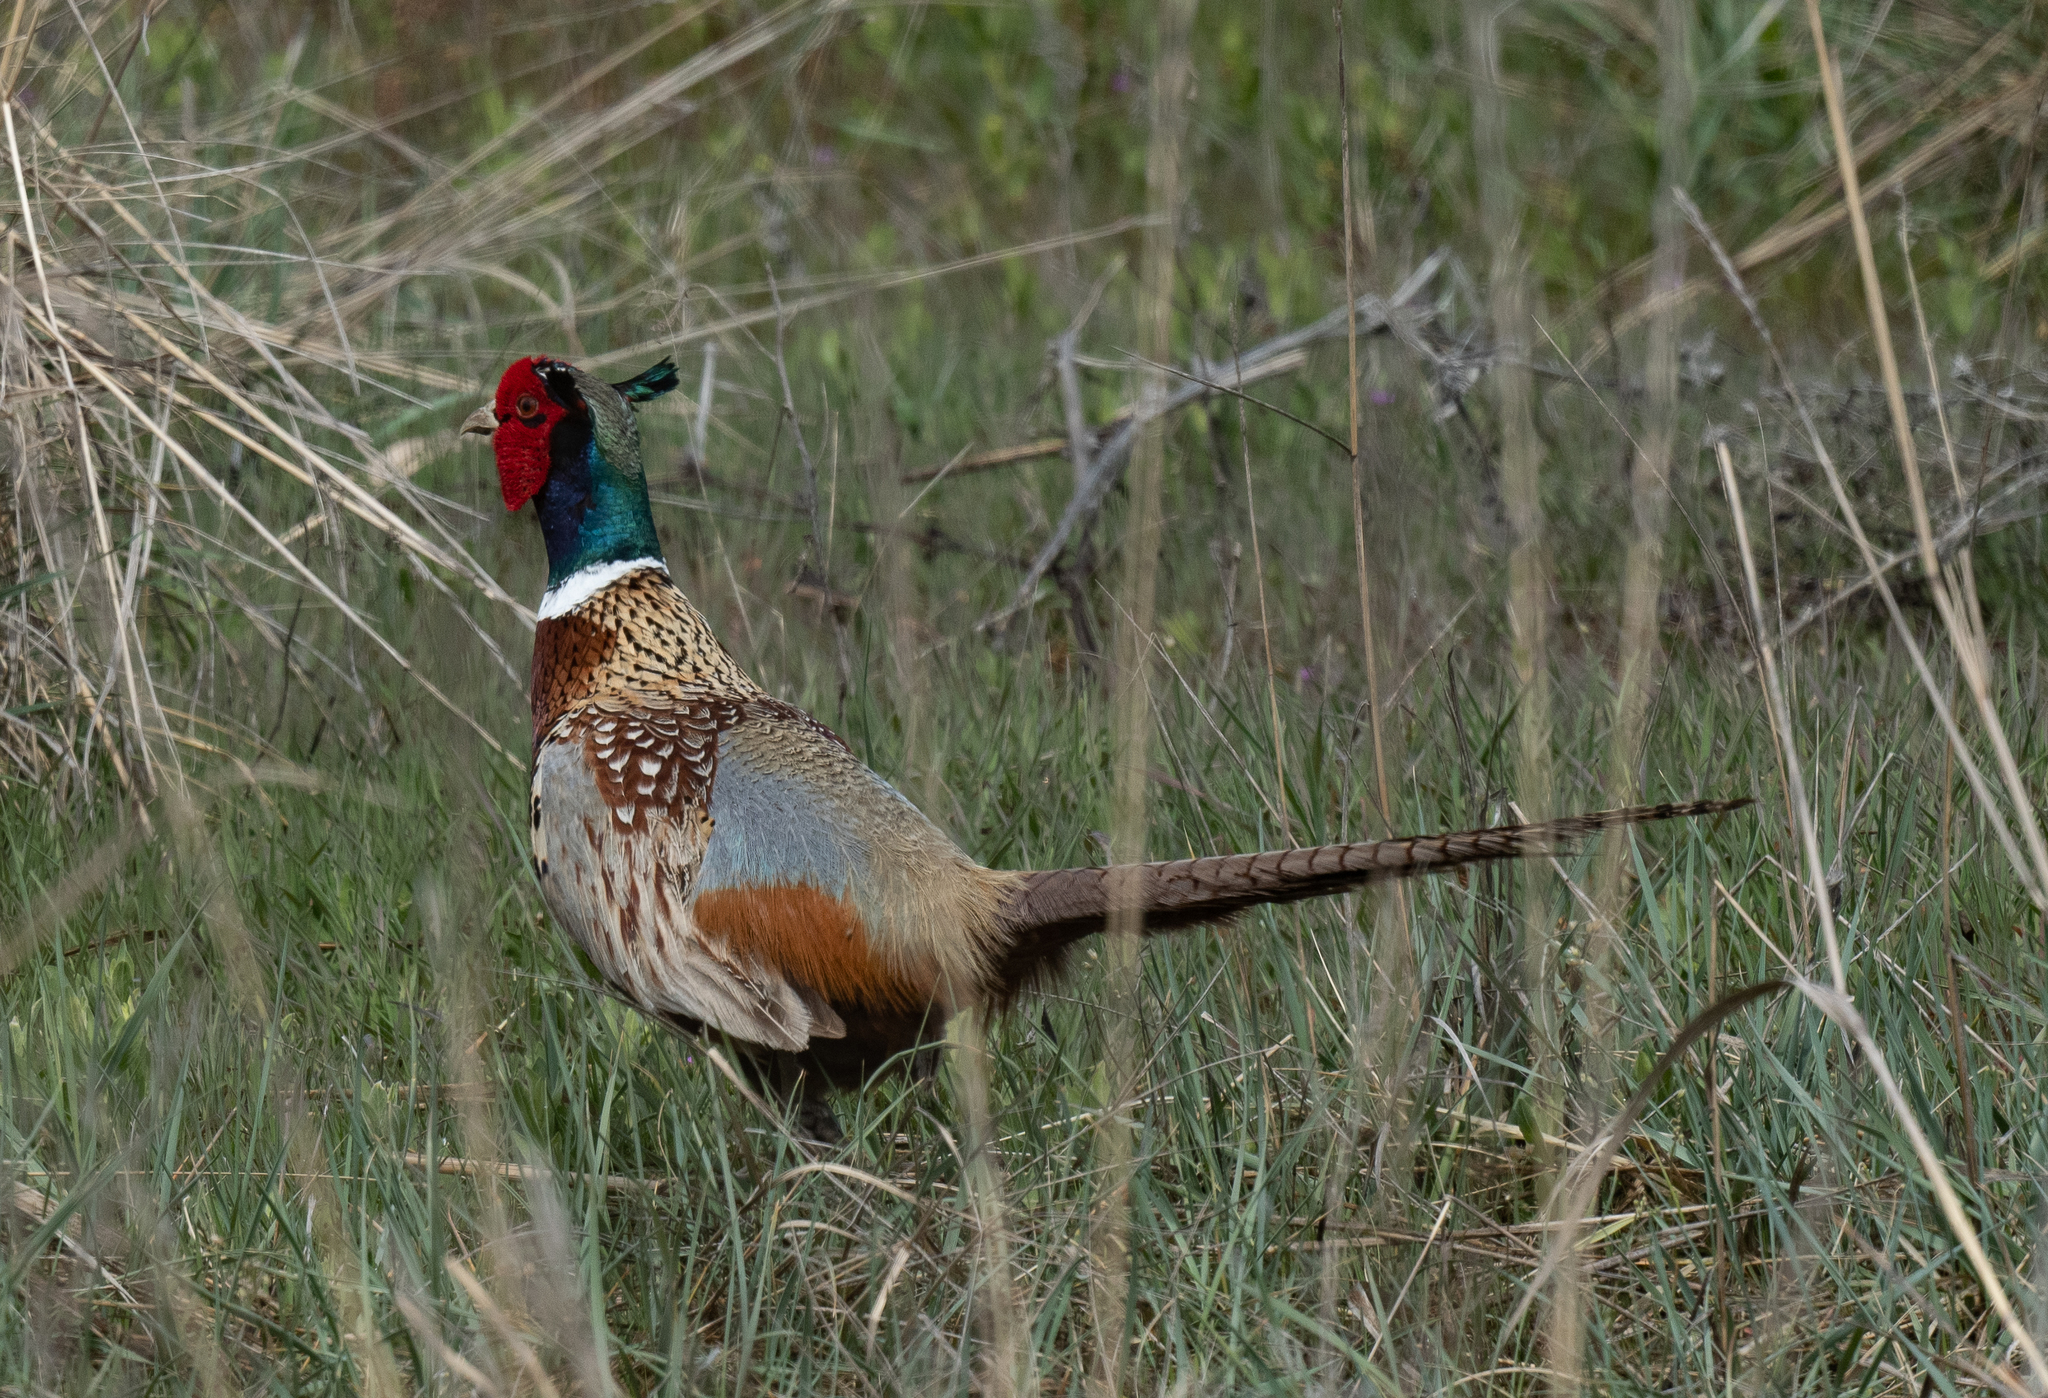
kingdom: Animalia
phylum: Chordata
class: Aves
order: Galliformes
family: Phasianidae
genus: Phasianus
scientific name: Phasianus colchicus
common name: Common pheasant
